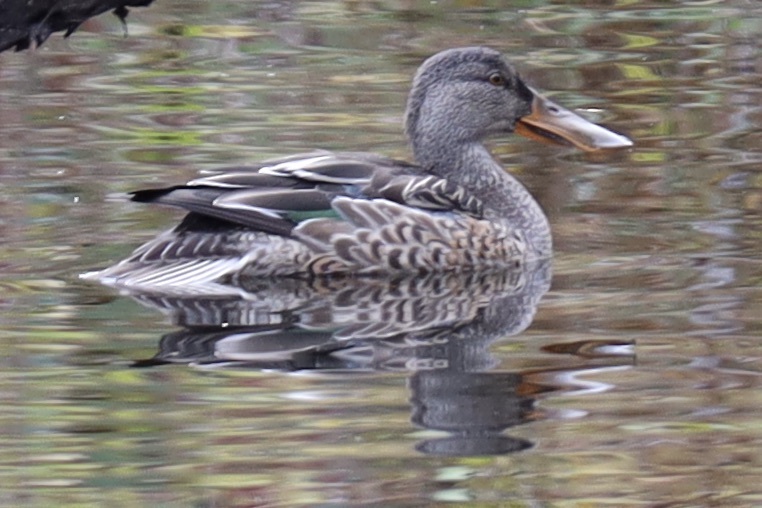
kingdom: Animalia
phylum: Chordata
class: Aves
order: Anseriformes
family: Anatidae
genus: Spatula
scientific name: Spatula clypeata
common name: Northern shoveler
